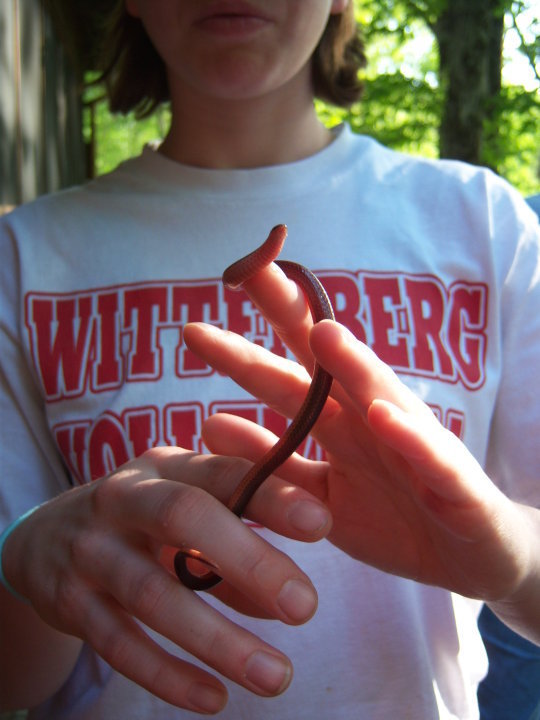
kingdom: Animalia
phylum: Chordata
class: Squamata
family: Colubridae
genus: Carphophis
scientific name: Carphophis amoenus
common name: Eastern worm snake
